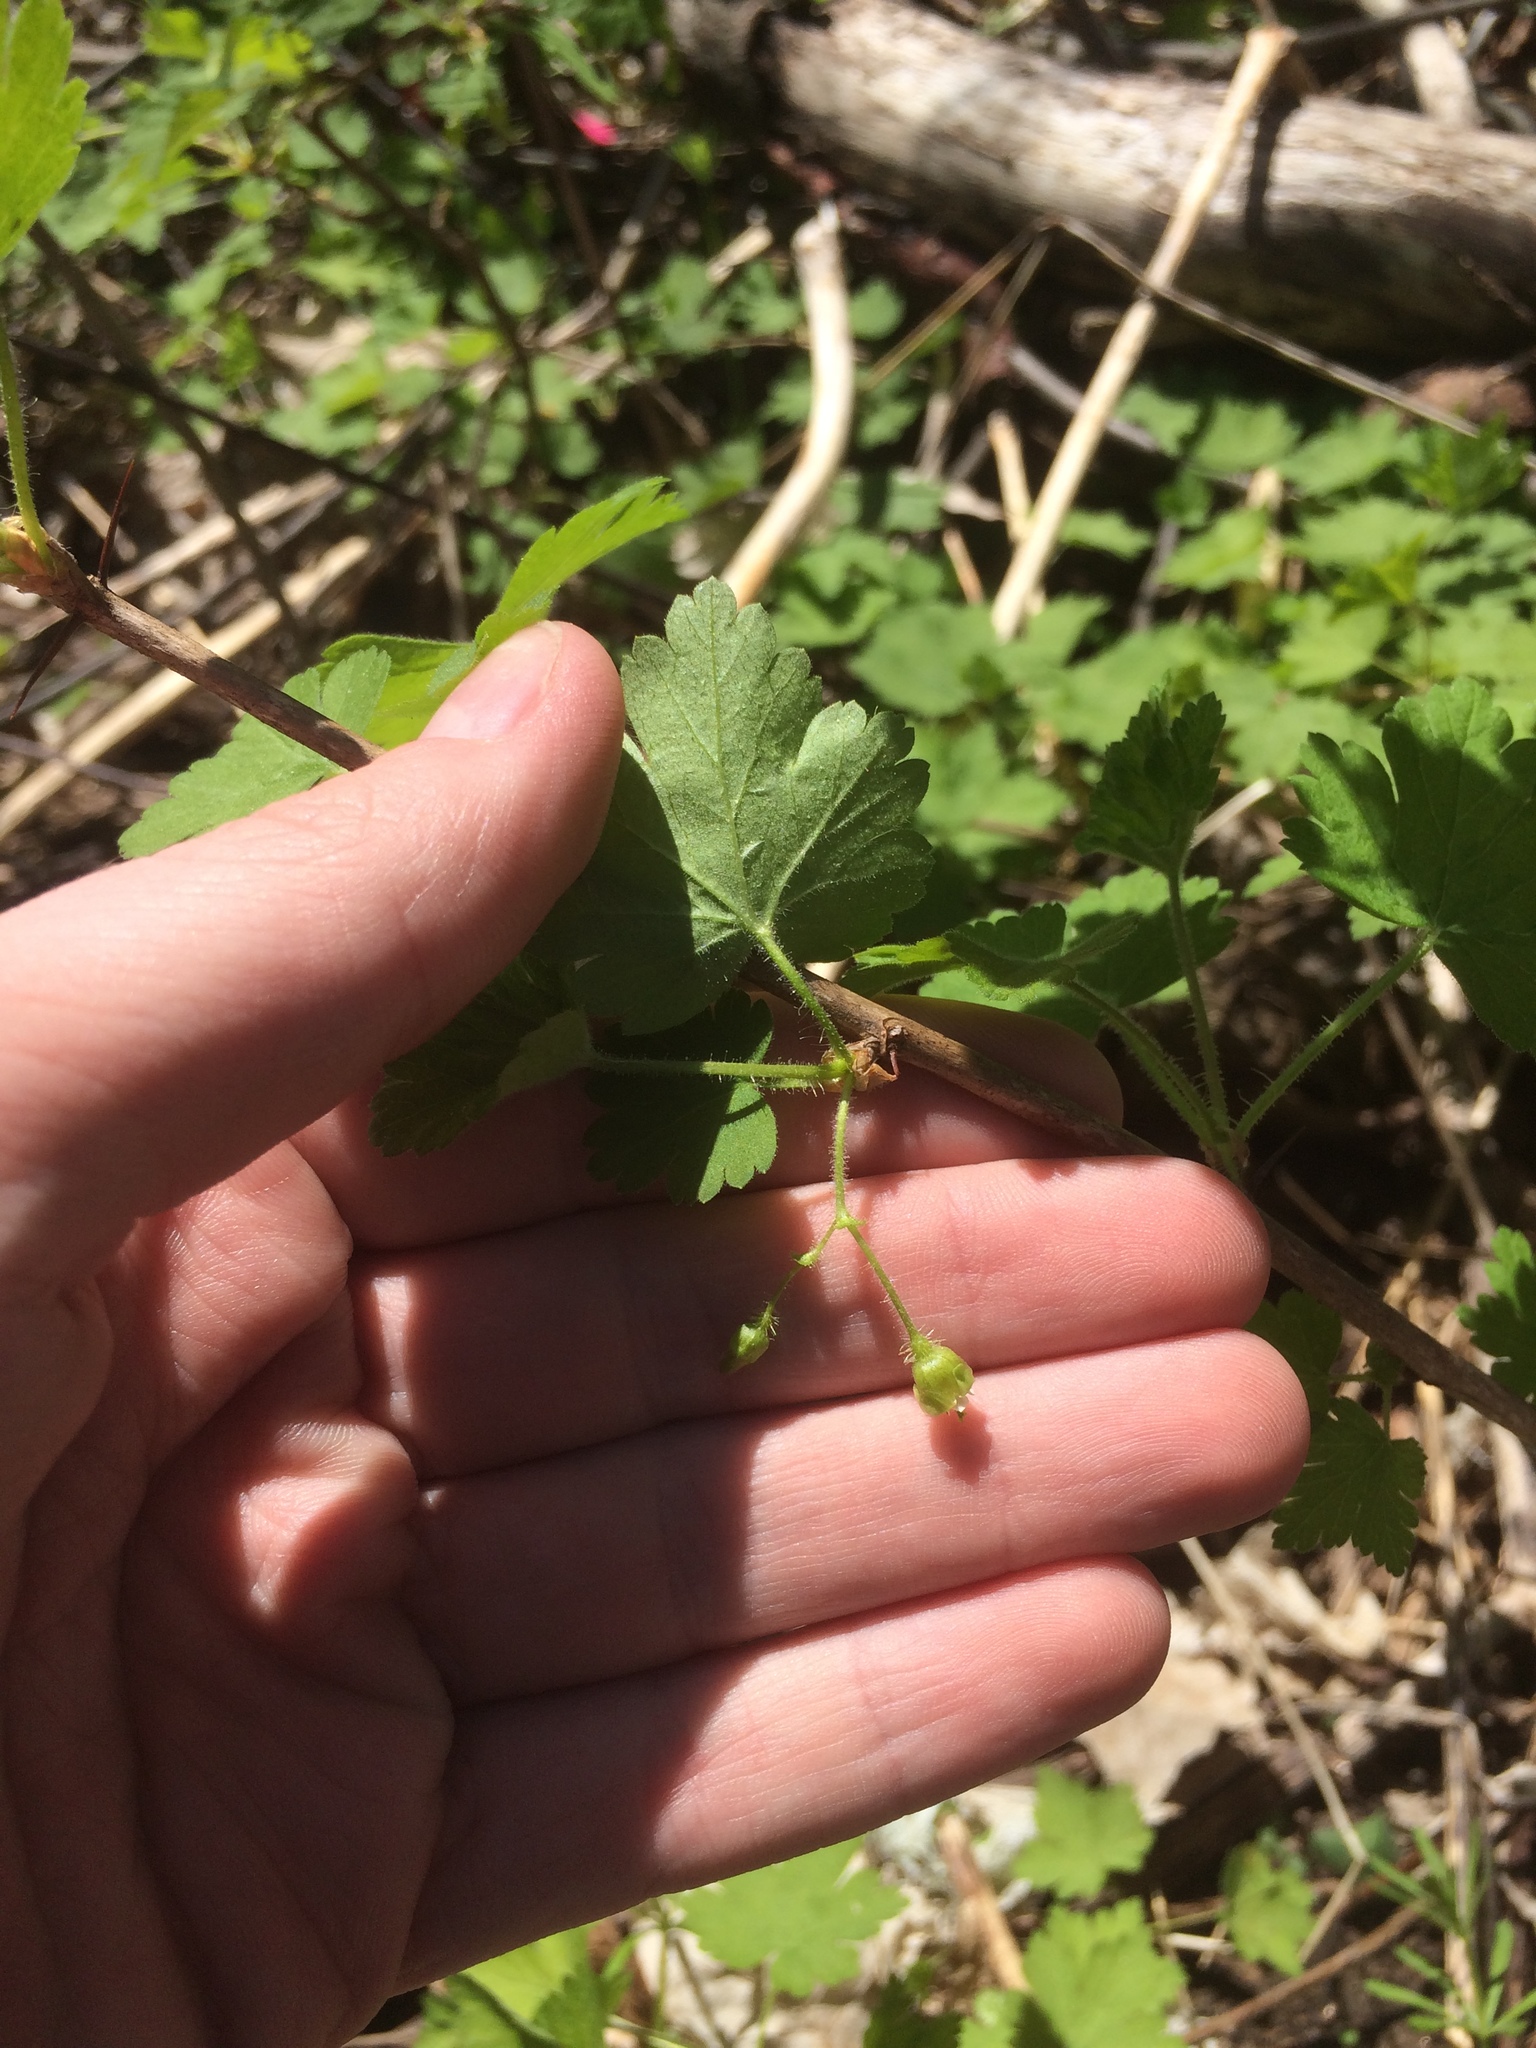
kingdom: Plantae
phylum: Tracheophyta
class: Magnoliopsida
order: Saxifragales
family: Grossulariaceae
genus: Ribes
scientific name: Ribes cynosbati
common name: American gooseberry
